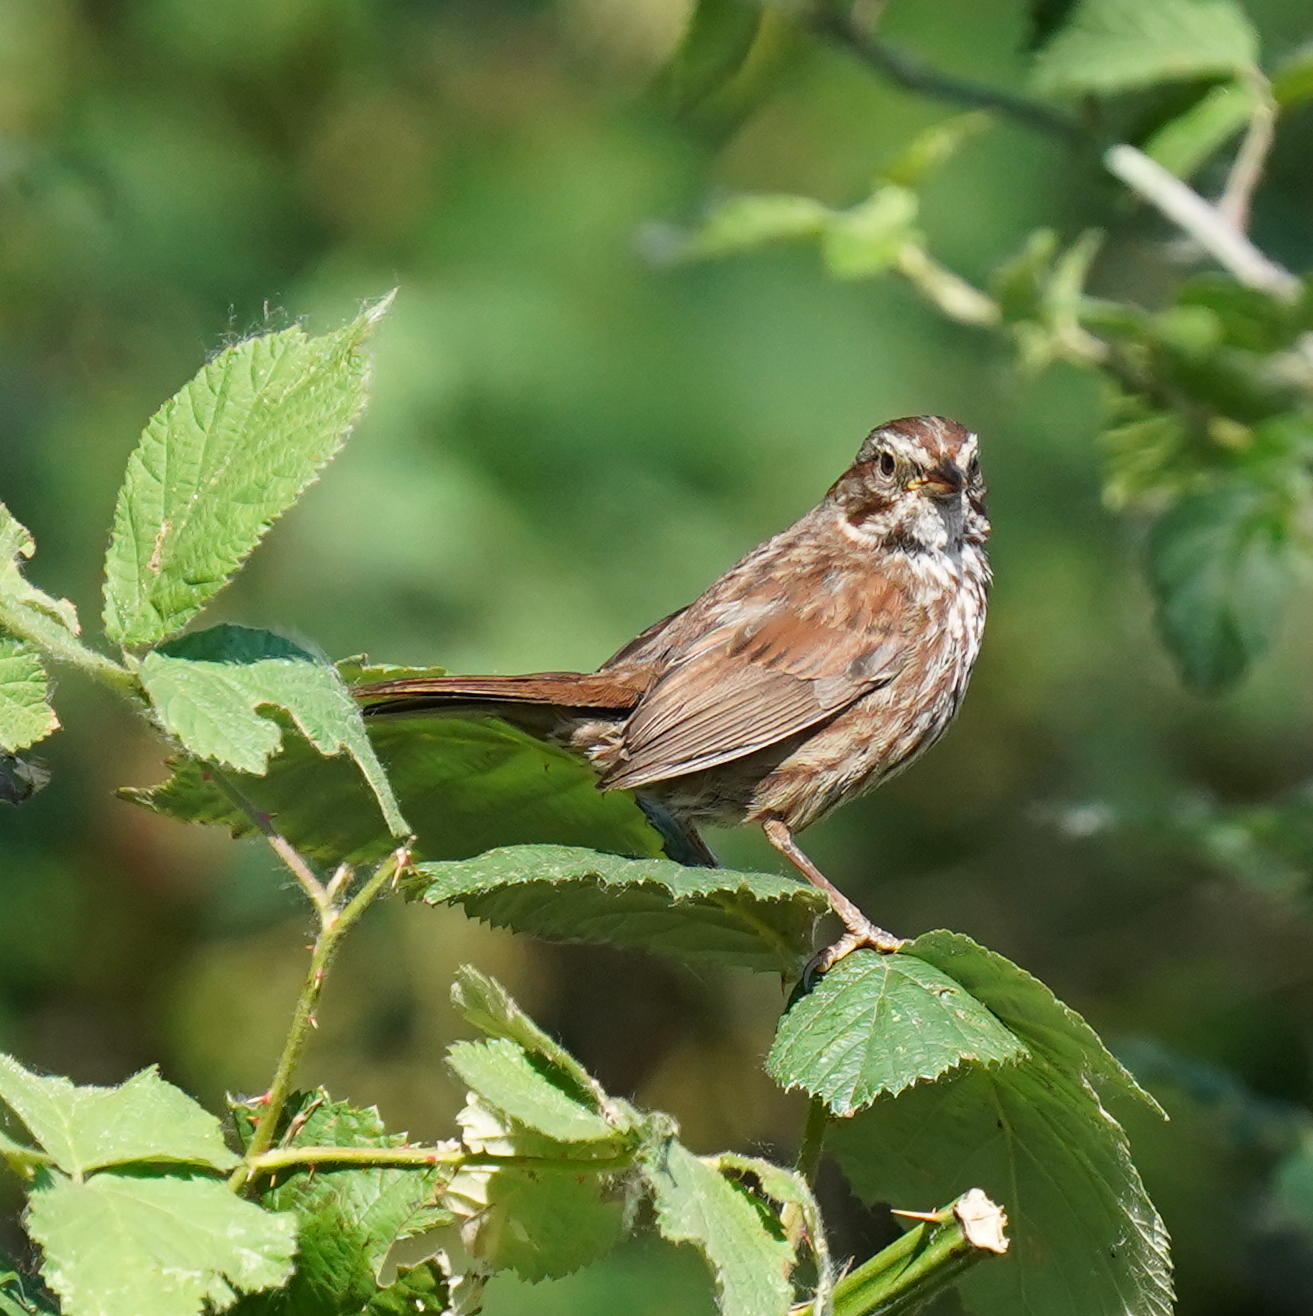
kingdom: Animalia
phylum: Chordata
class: Aves
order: Passeriformes
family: Passerellidae
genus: Melospiza
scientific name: Melospiza melodia
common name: Song sparrow
